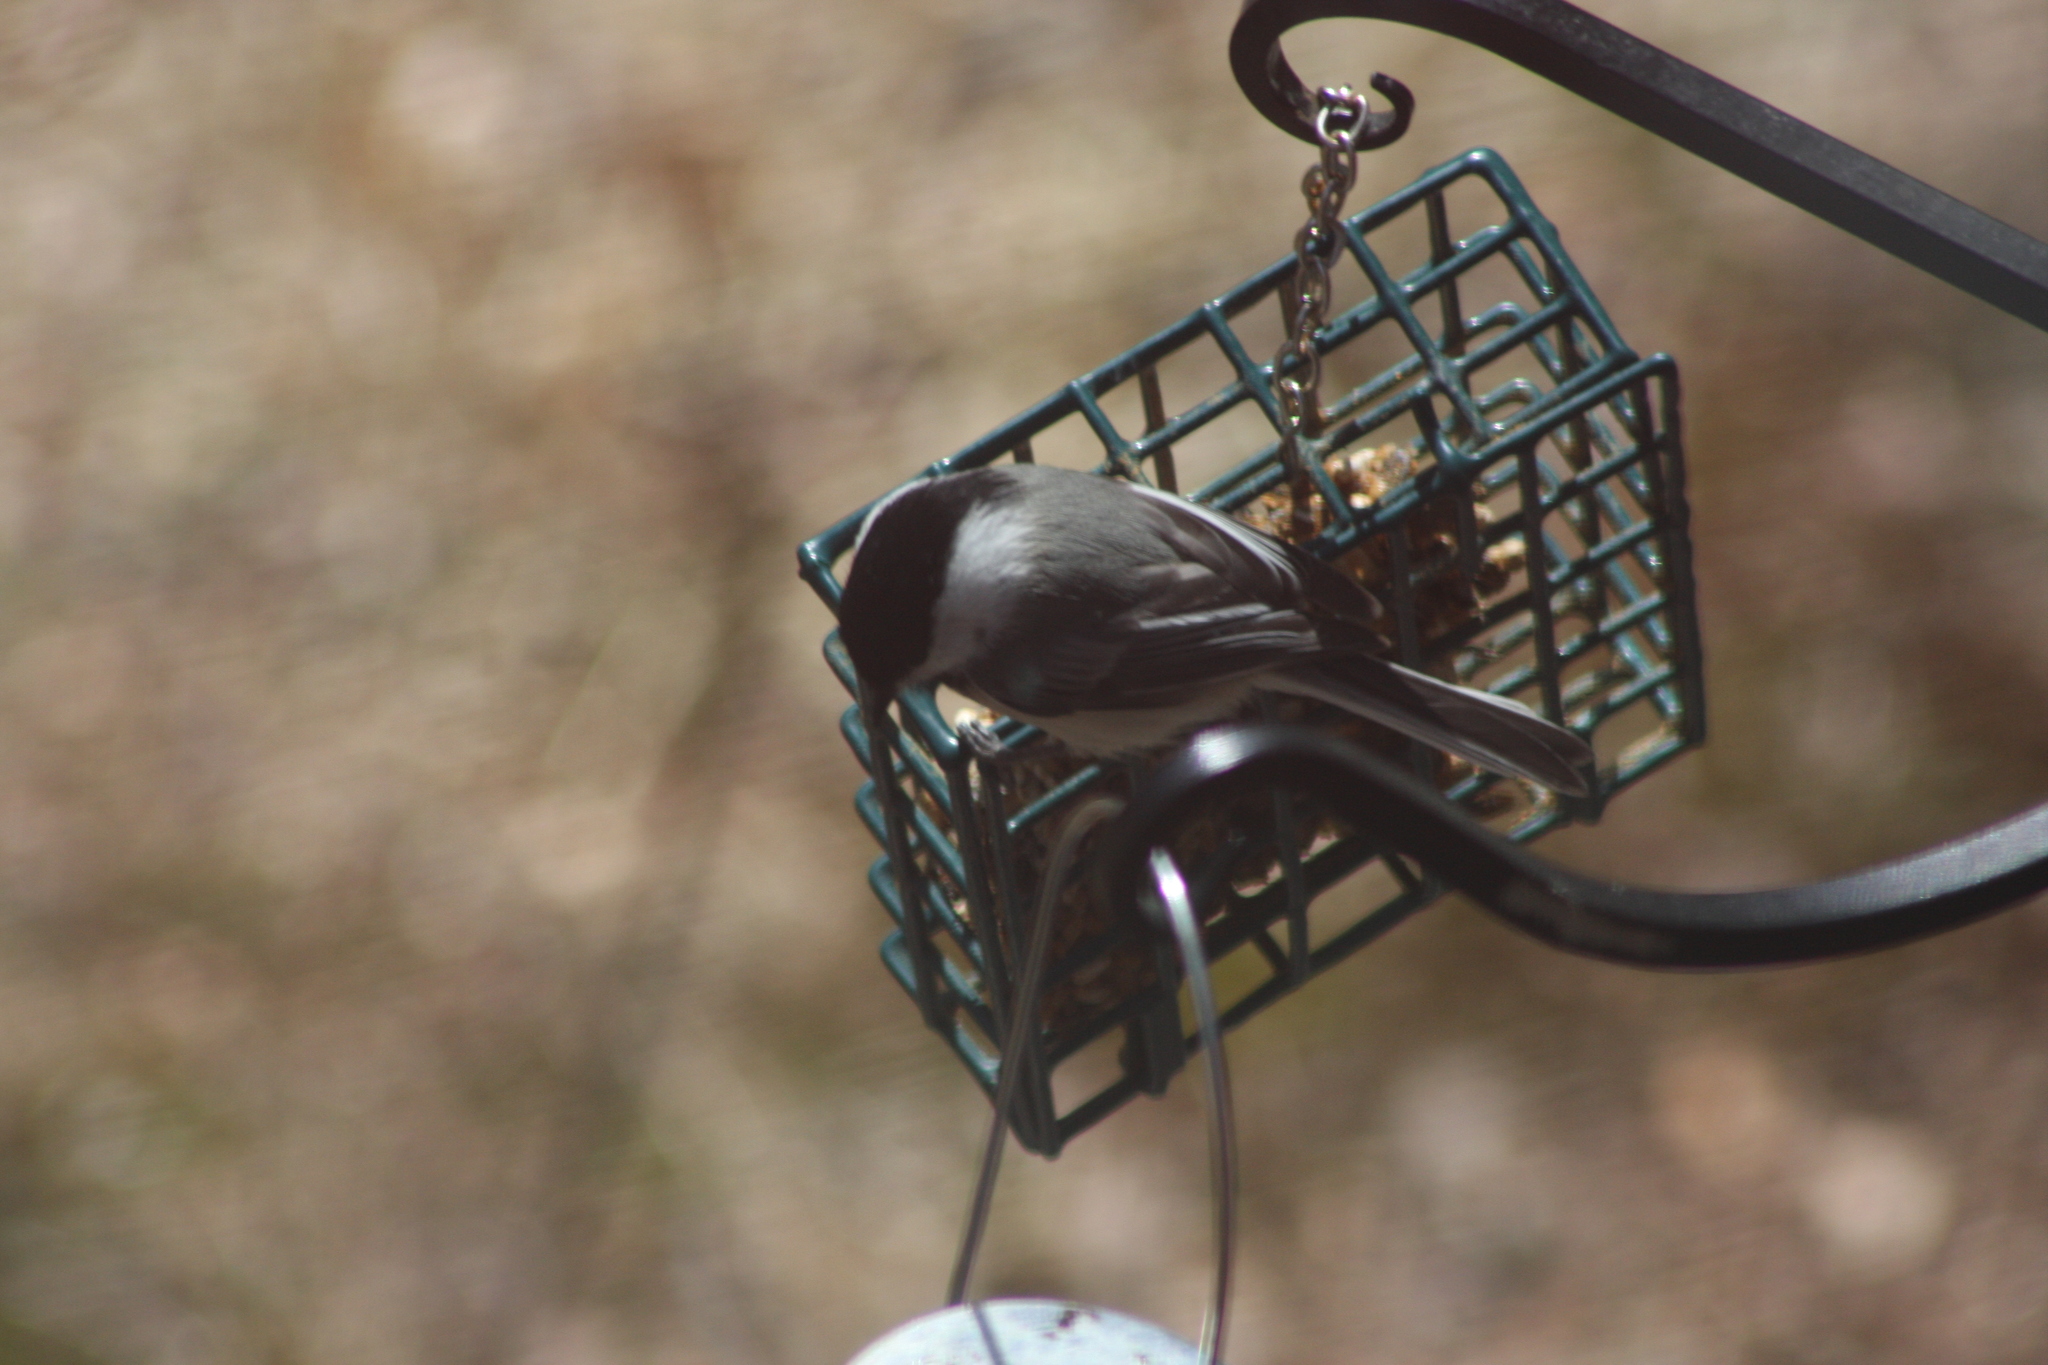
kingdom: Animalia
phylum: Chordata
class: Aves
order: Passeriformes
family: Paridae
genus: Poecile
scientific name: Poecile atricapillus
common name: Black-capped chickadee
